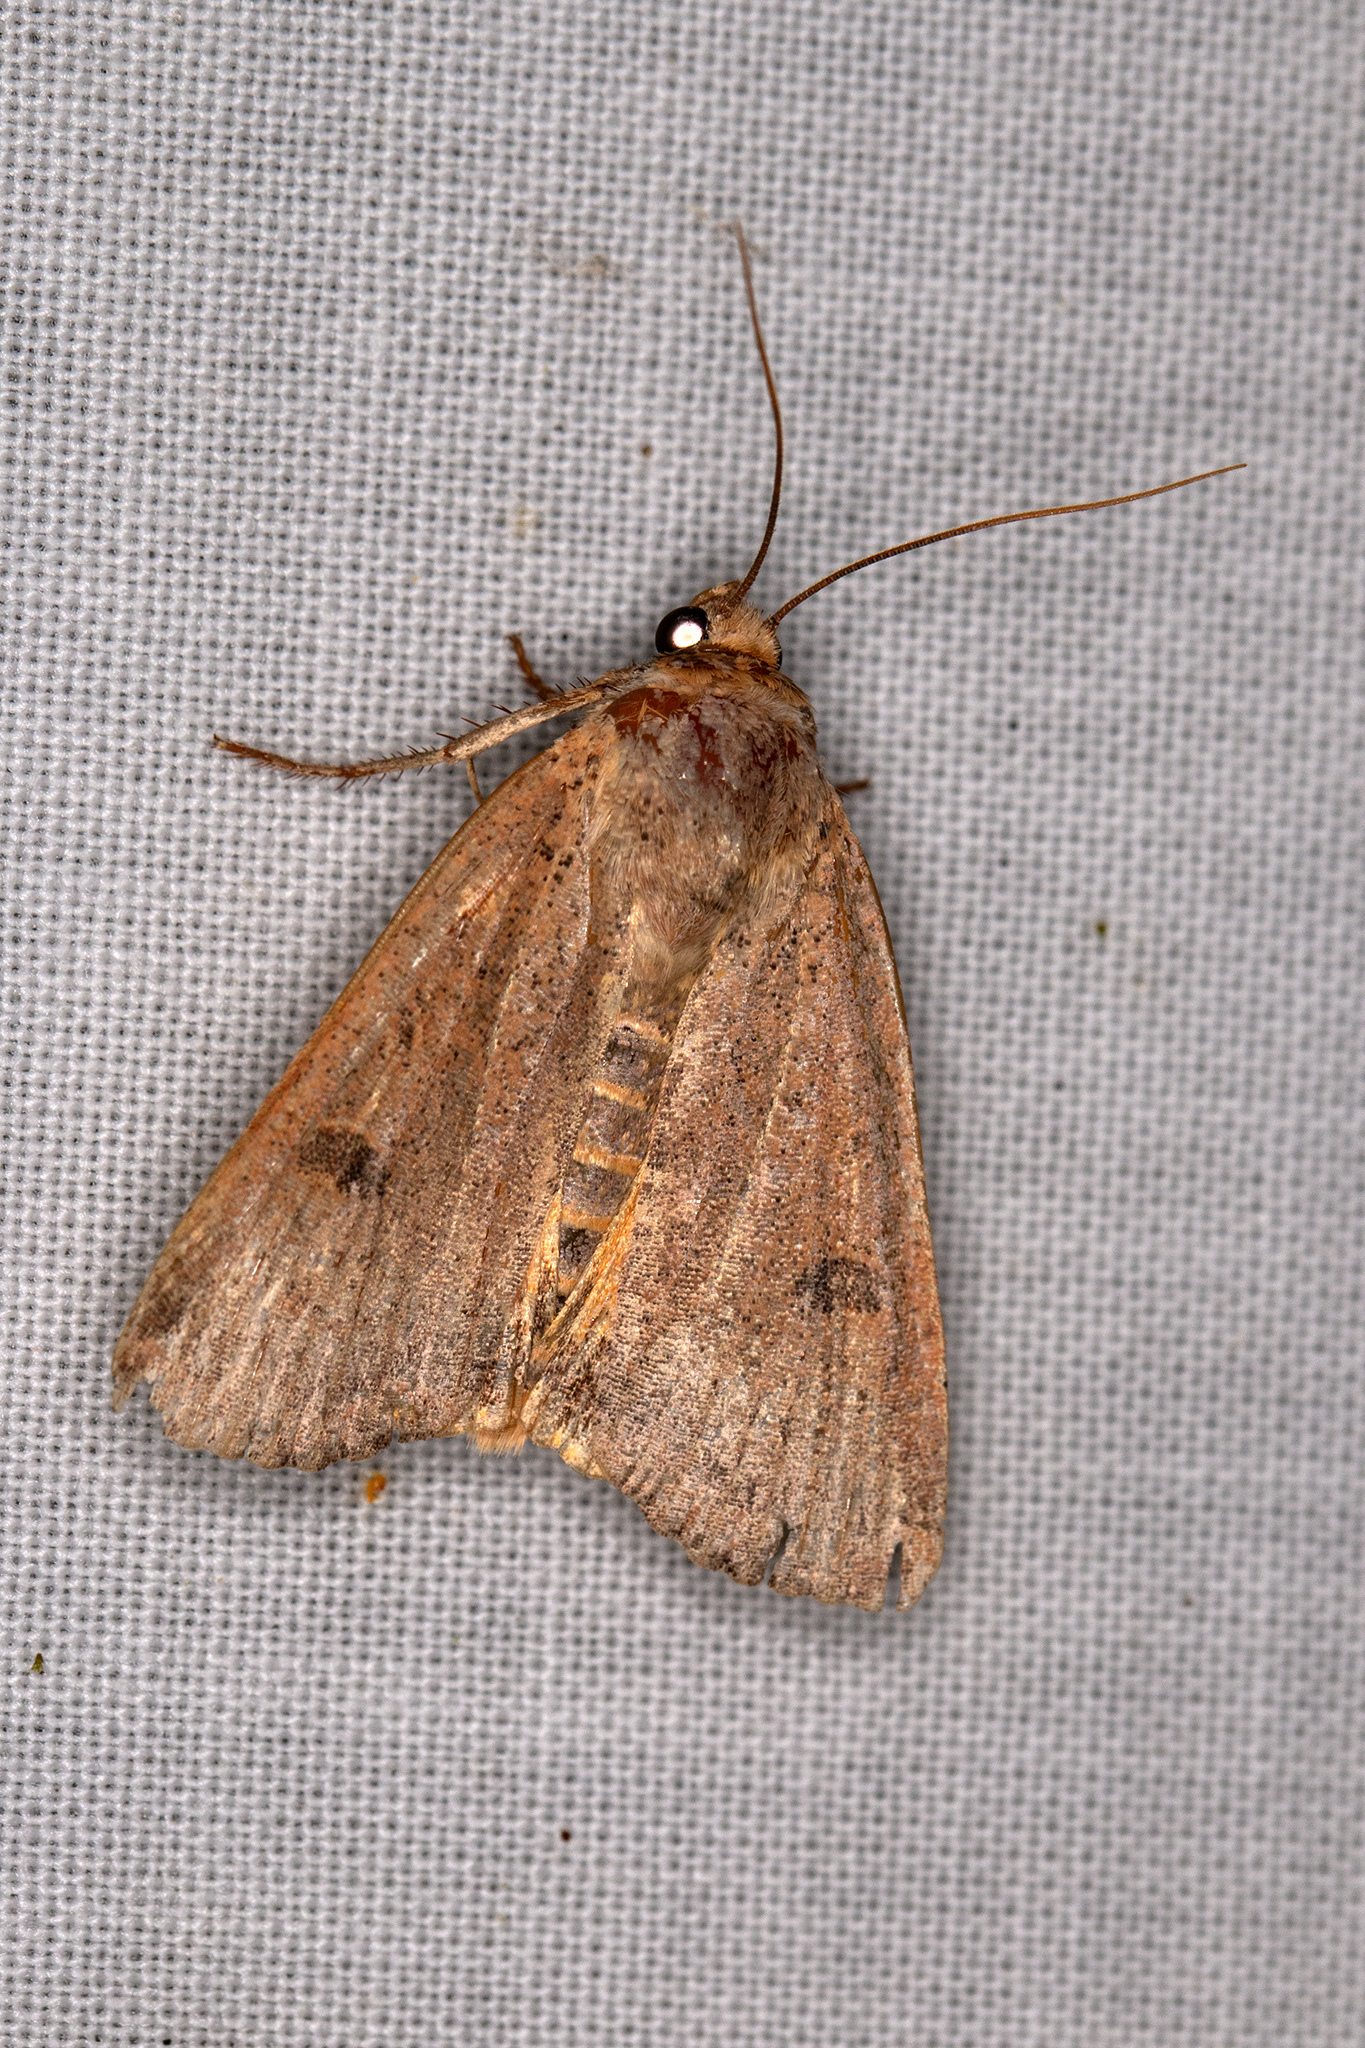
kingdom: Animalia
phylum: Arthropoda
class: Insecta
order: Lepidoptera
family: Noctuidae
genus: Noctua
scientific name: Noctua comes
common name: Lesser yellow underwing
